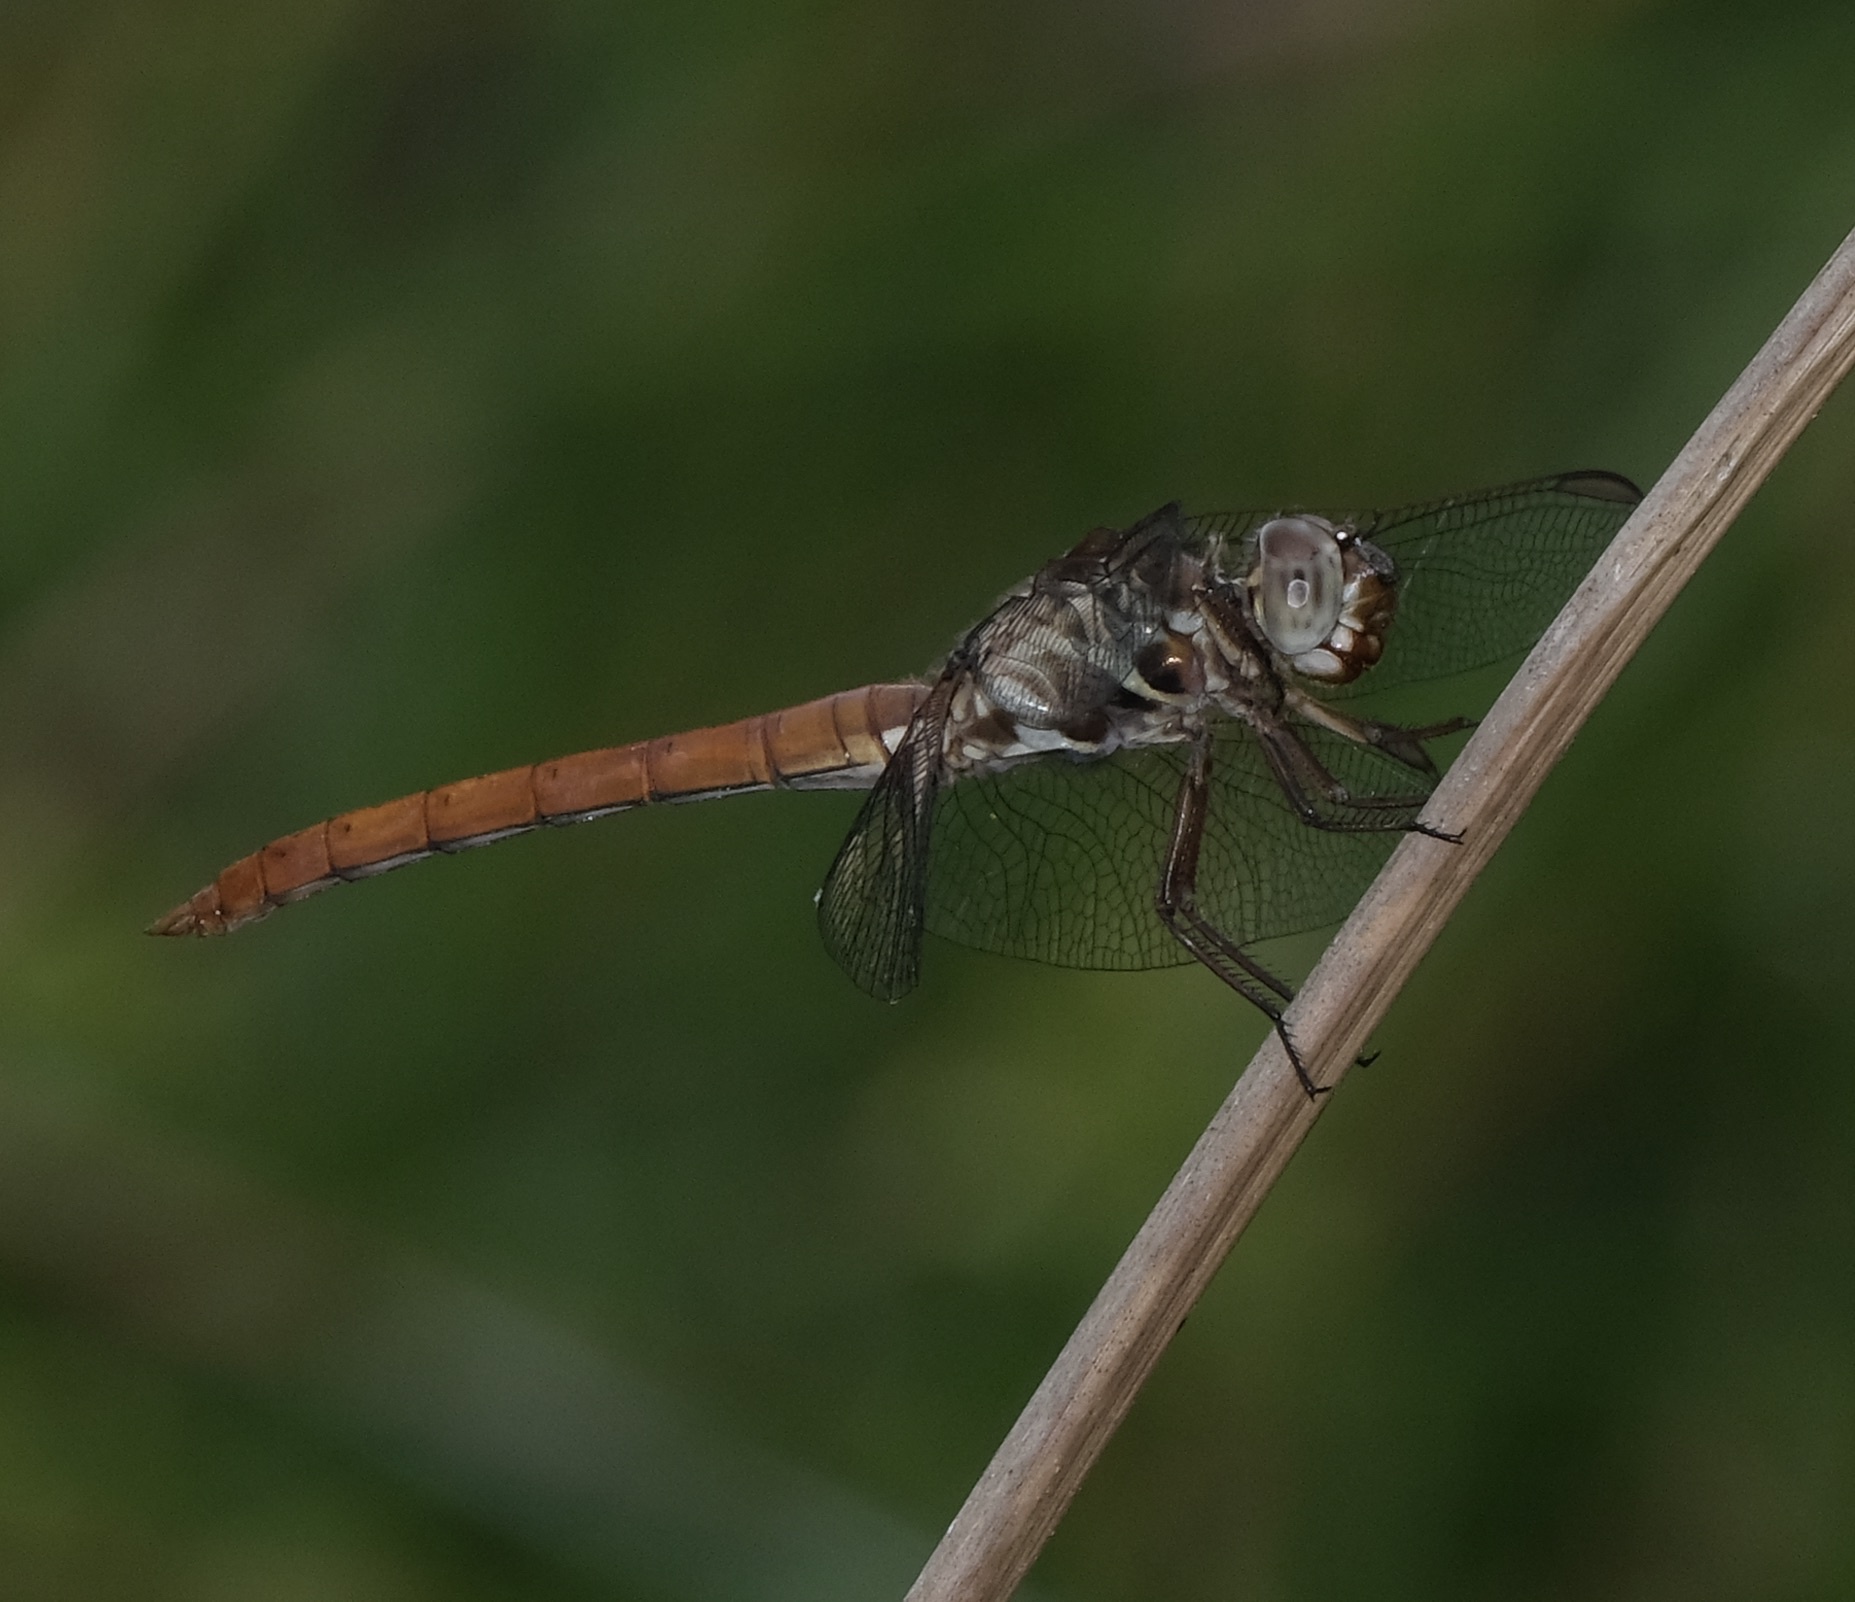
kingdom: Animalia
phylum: Arthropoda
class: Insecta
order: Odonata
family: Libellulidae
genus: Orthemis
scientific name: Orthemis ferruginea
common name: Roseate skimmer
